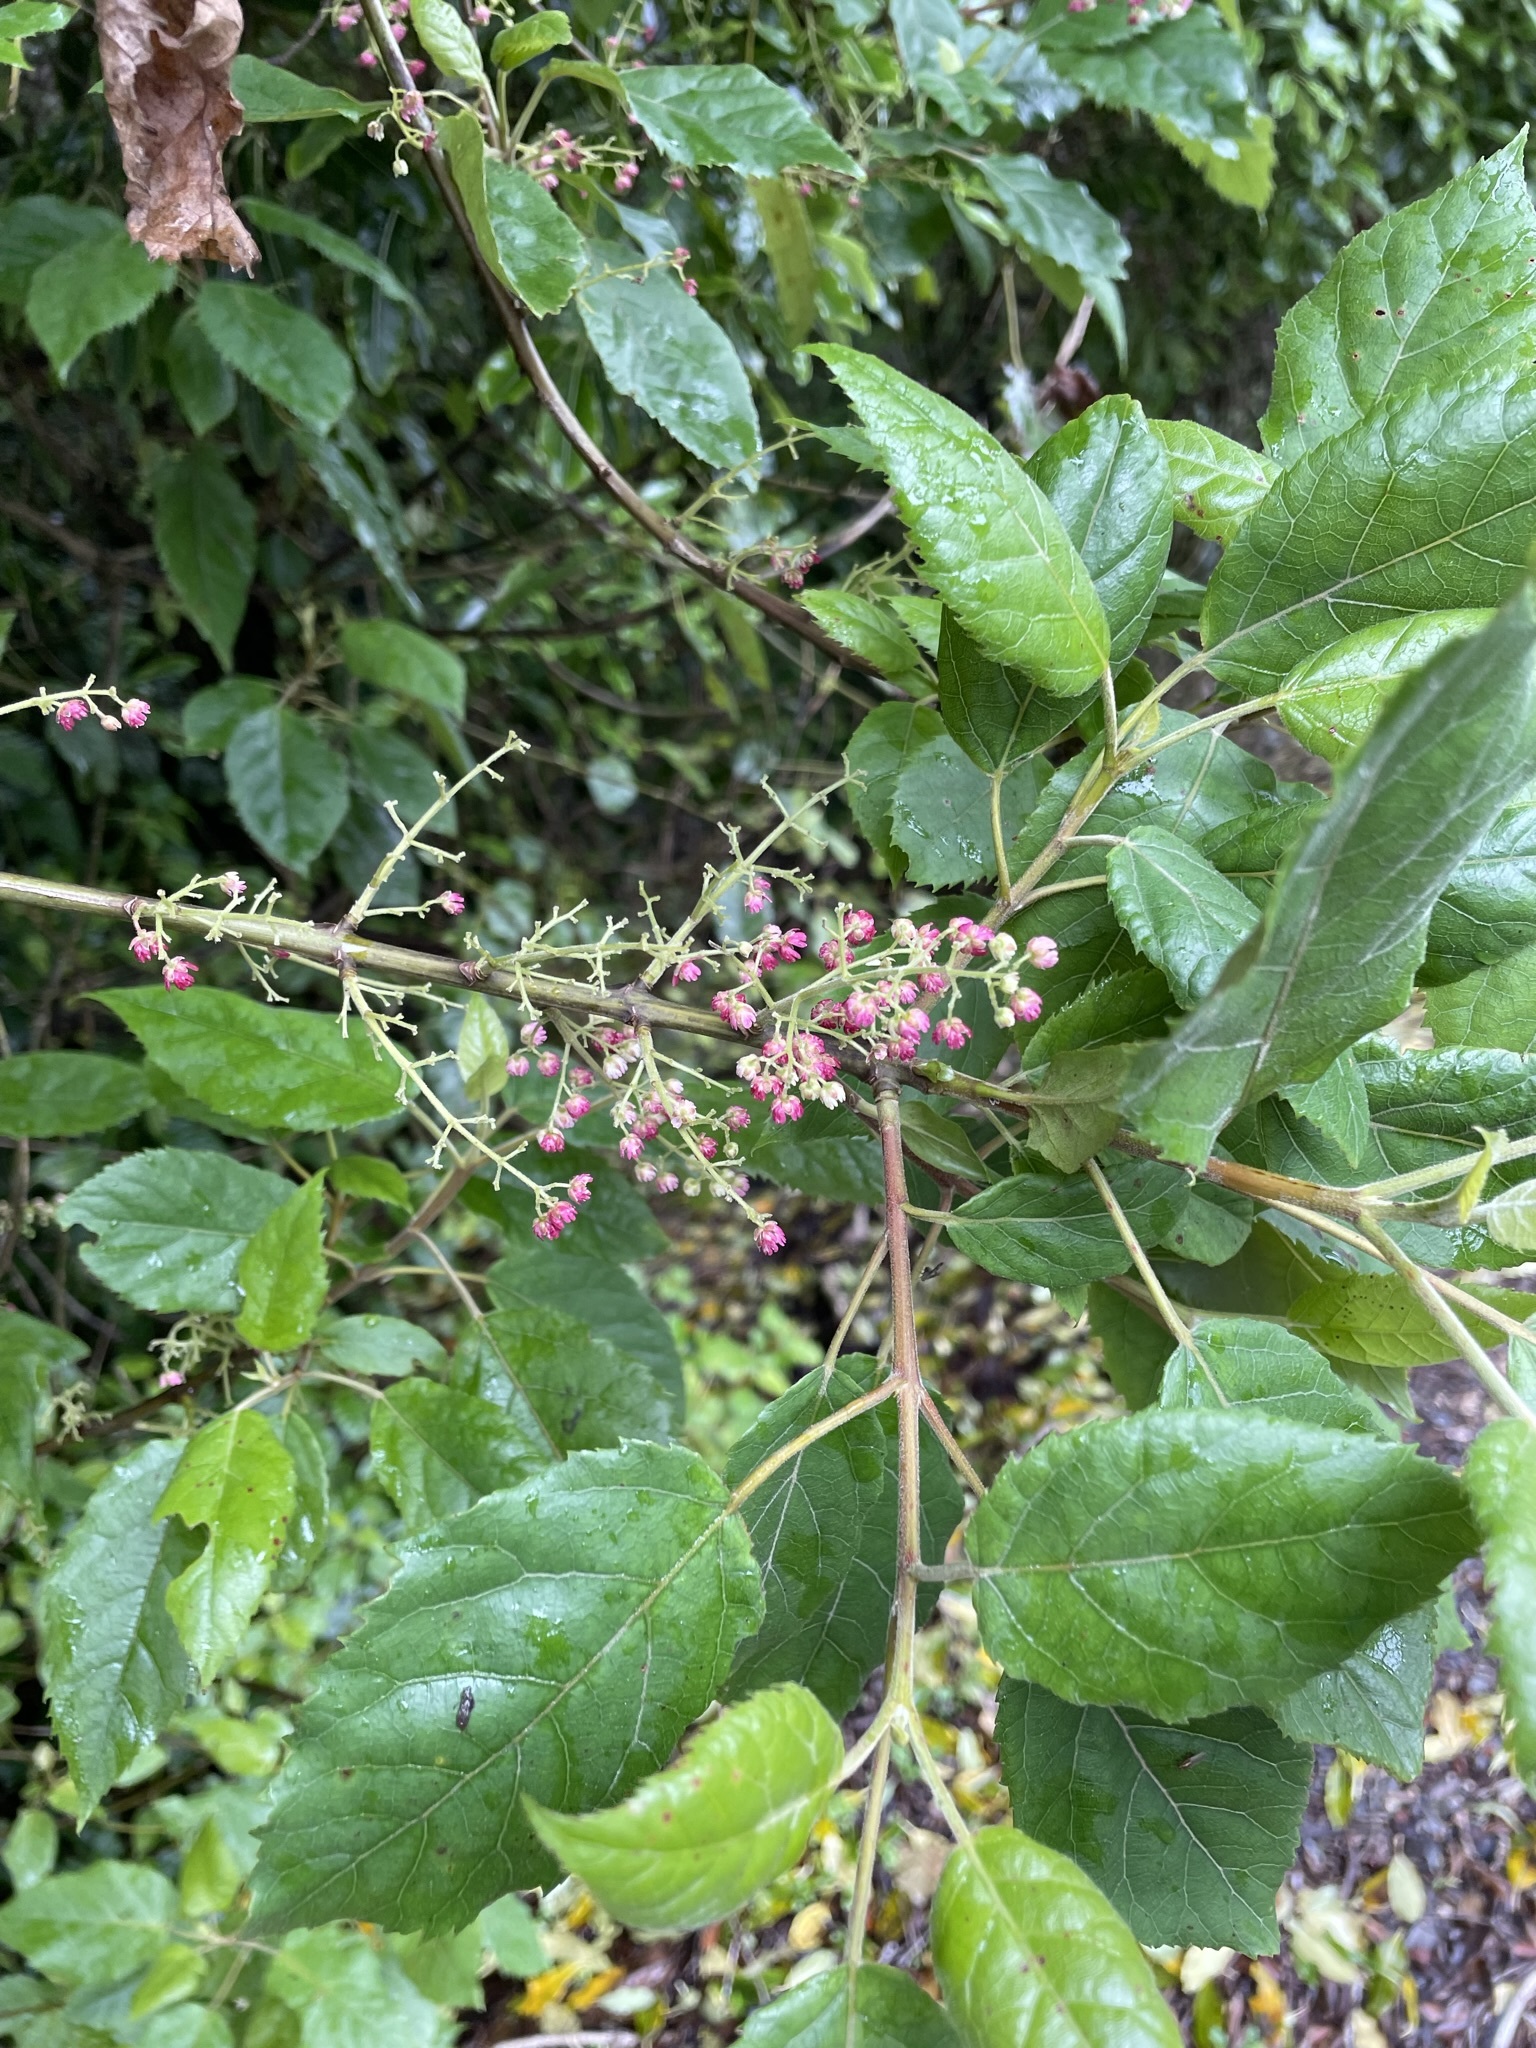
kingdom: Plantae
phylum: Tracheophyta
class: Magnoliopsida
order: Oxalidales
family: Elaeocarpaceae
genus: Aristotelia
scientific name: Aristotelia serrata
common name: New zealand wineberry
